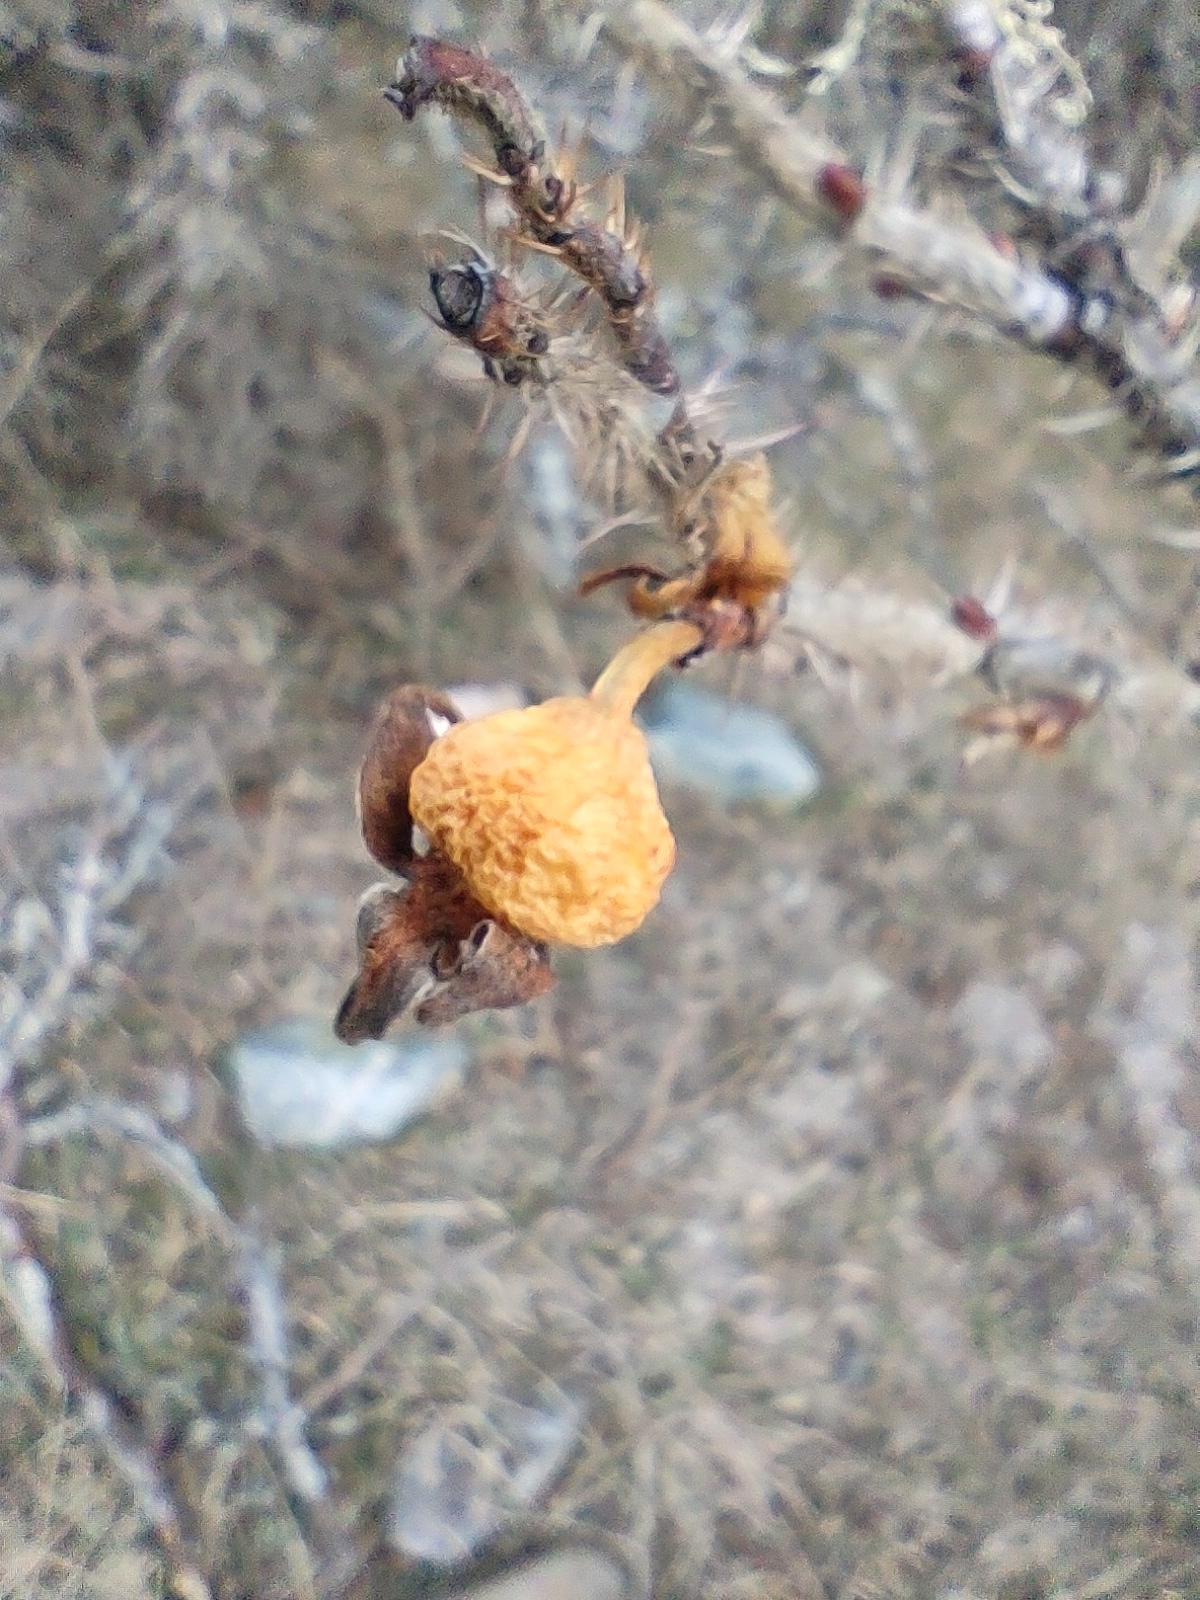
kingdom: Plantae
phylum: Tracheophyta
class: Magnoliopsida
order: Rosales
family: Rosaceae
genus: Rosa
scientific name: Rosa rugosa
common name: Japanese rose
